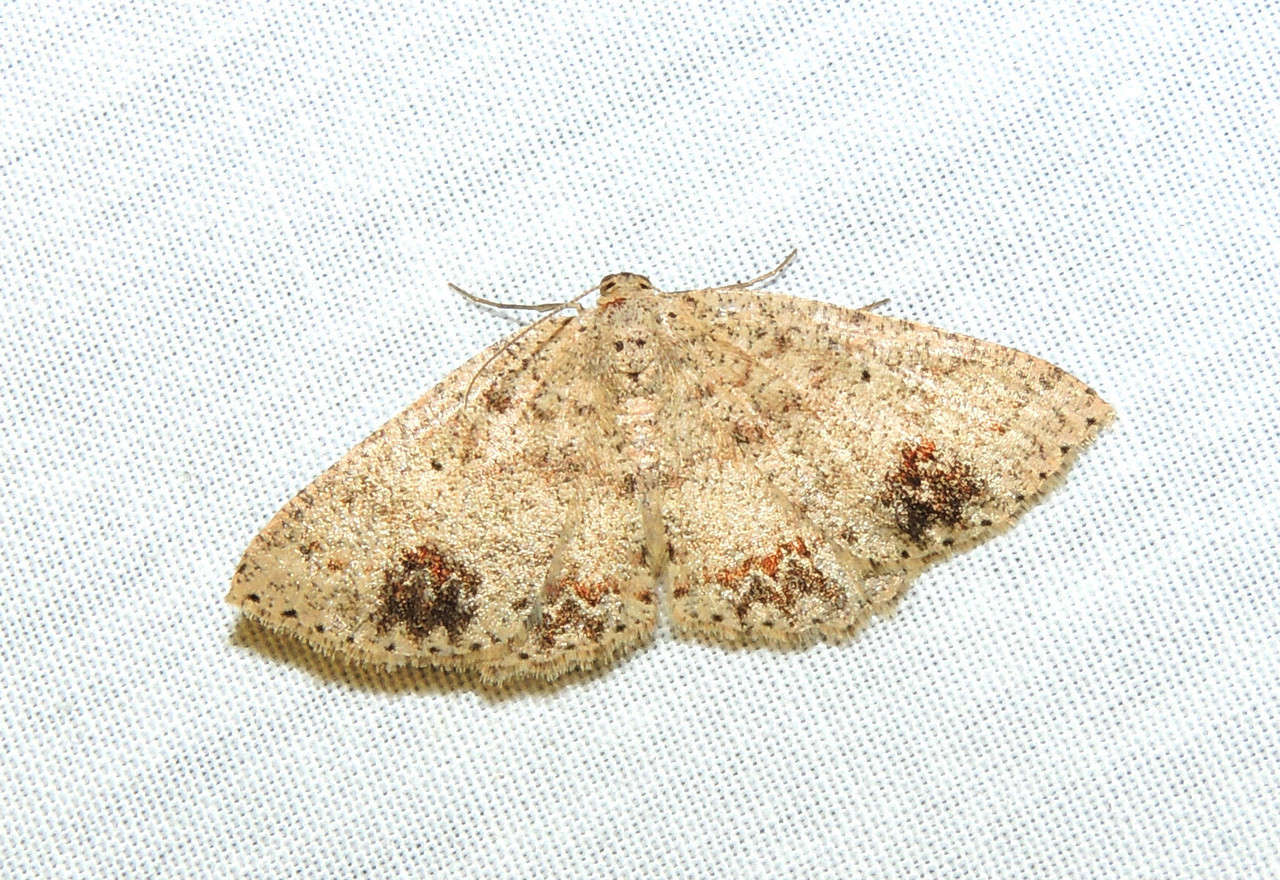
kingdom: Animalia
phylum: Arthropoda
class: Insecta
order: Lepidoptera
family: Geometridae
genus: Casbia
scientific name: Casbia celidosema
